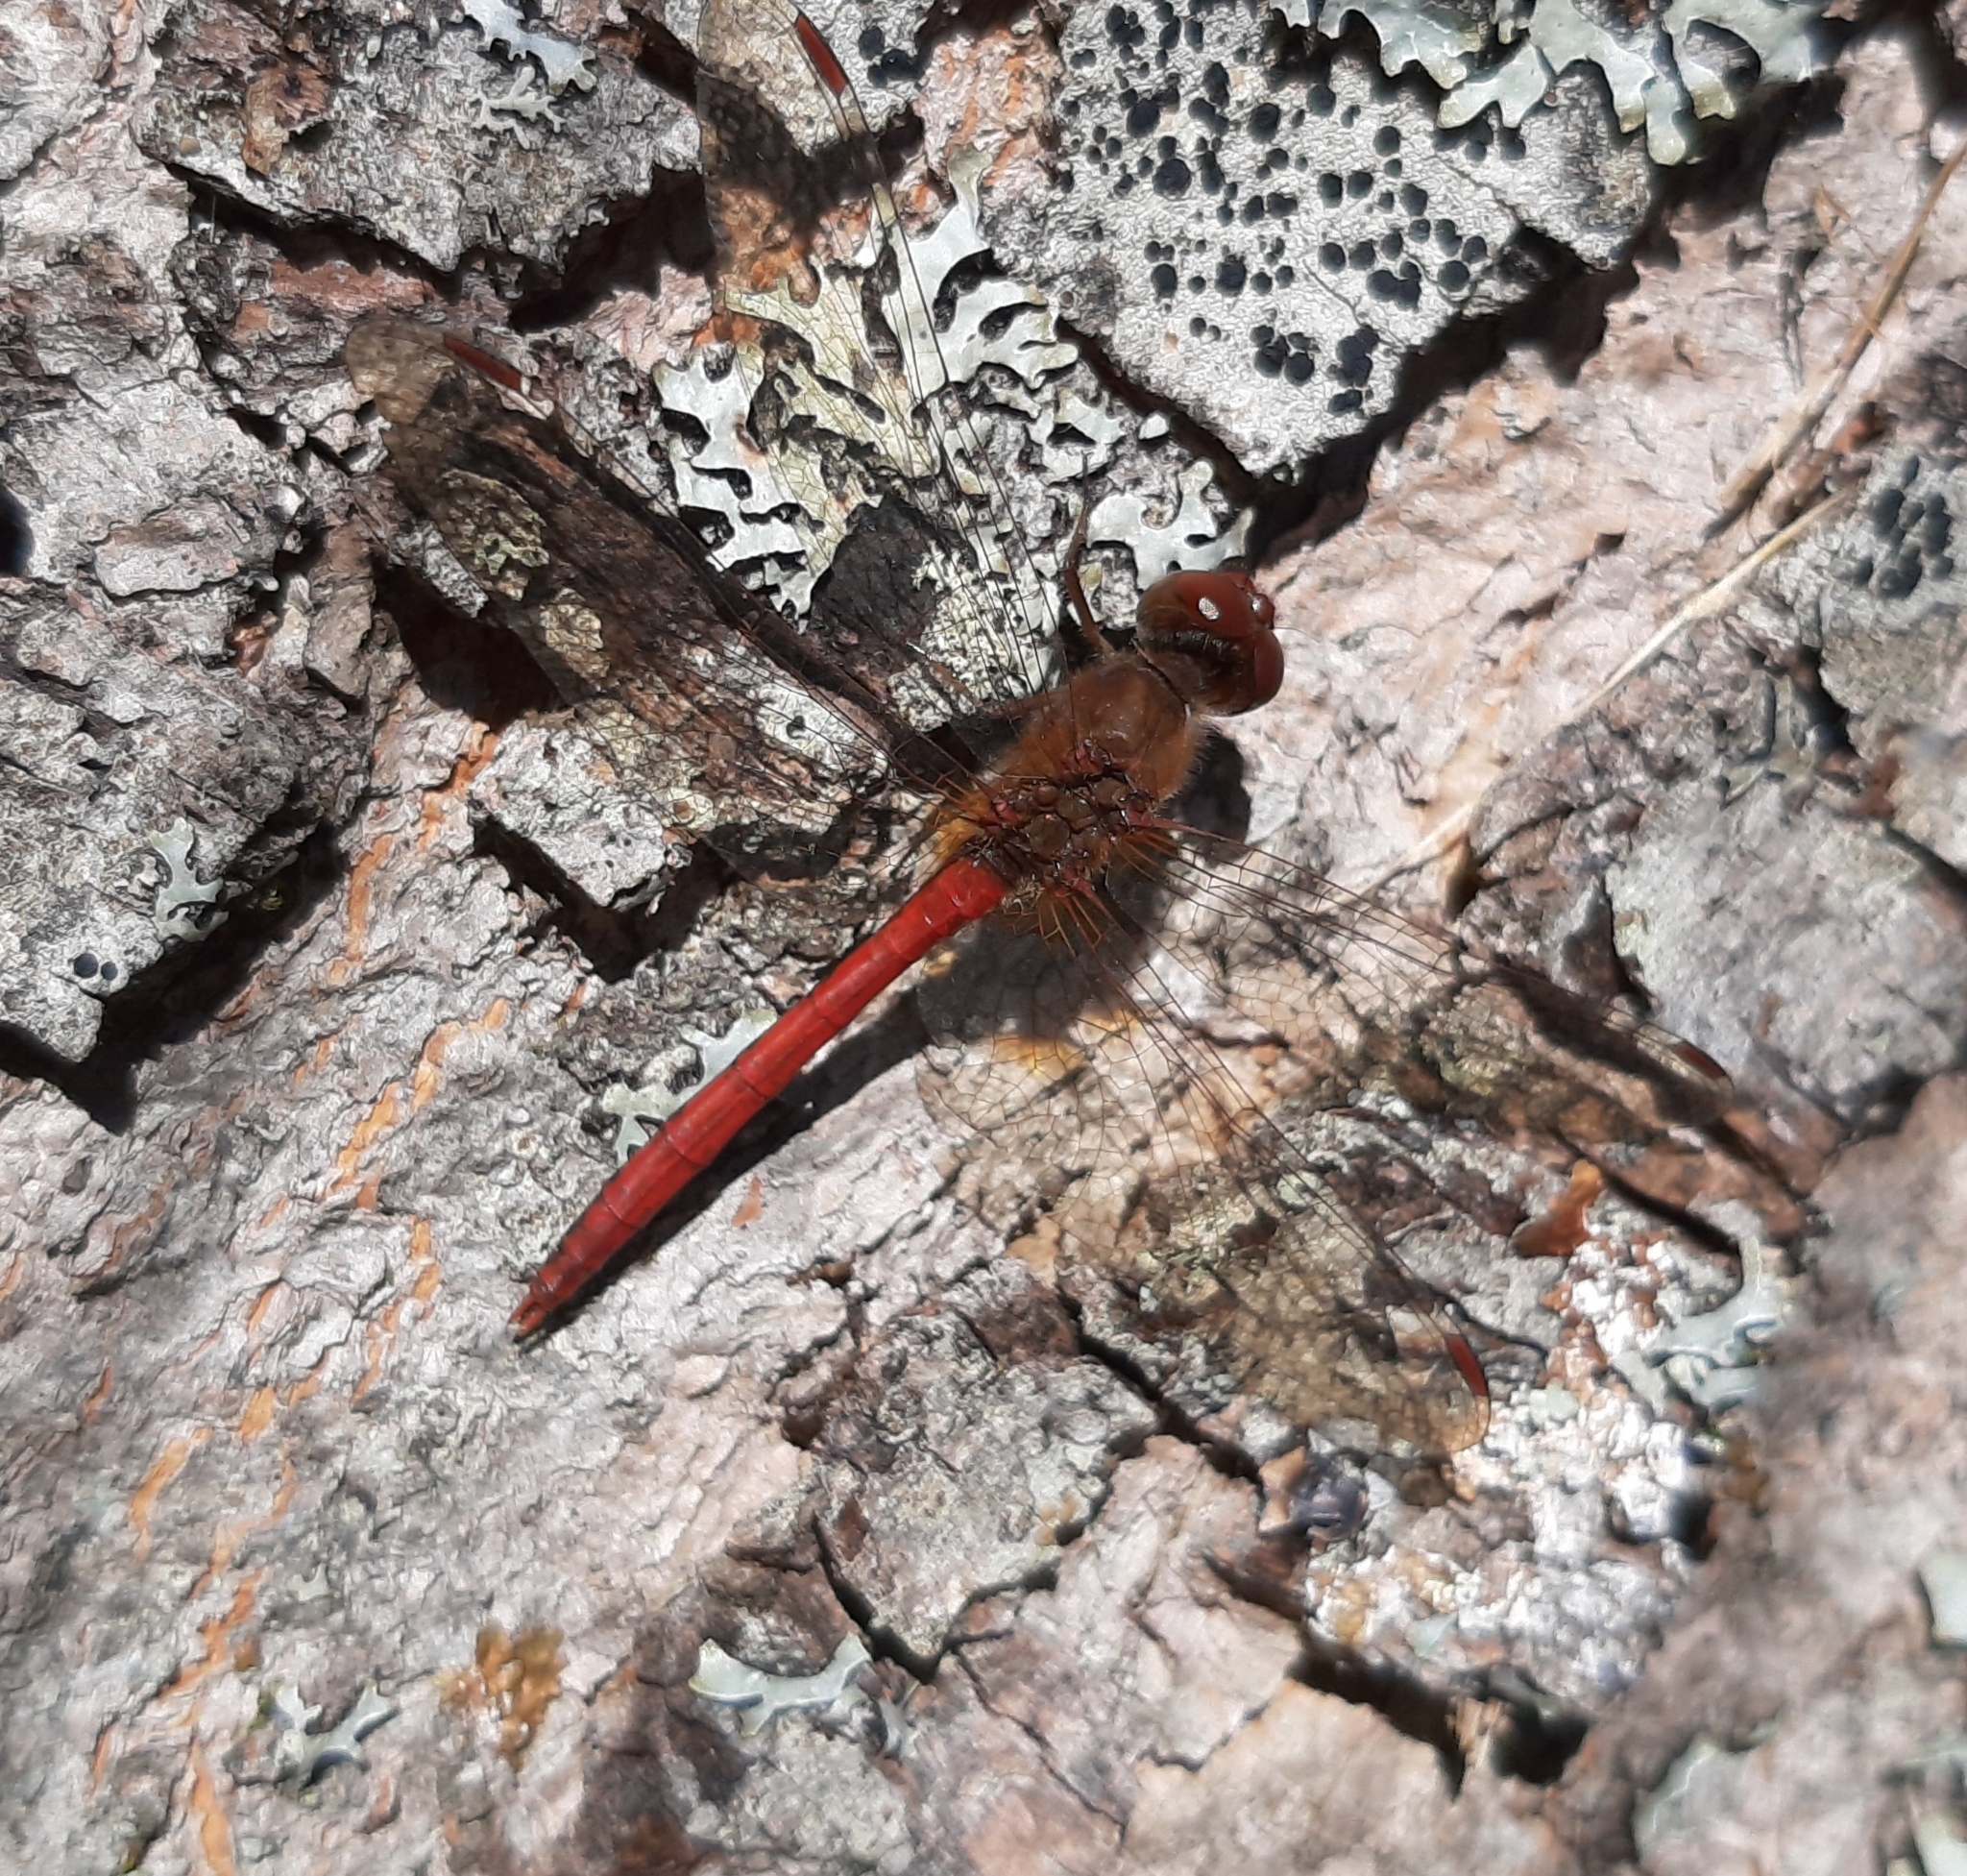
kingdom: Animalia
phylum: Arthropoda
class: Insecta
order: Odonata
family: Libellulidae
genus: Sympetrum
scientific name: Sympetrum vicinum
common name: Autumn meadowhawk
